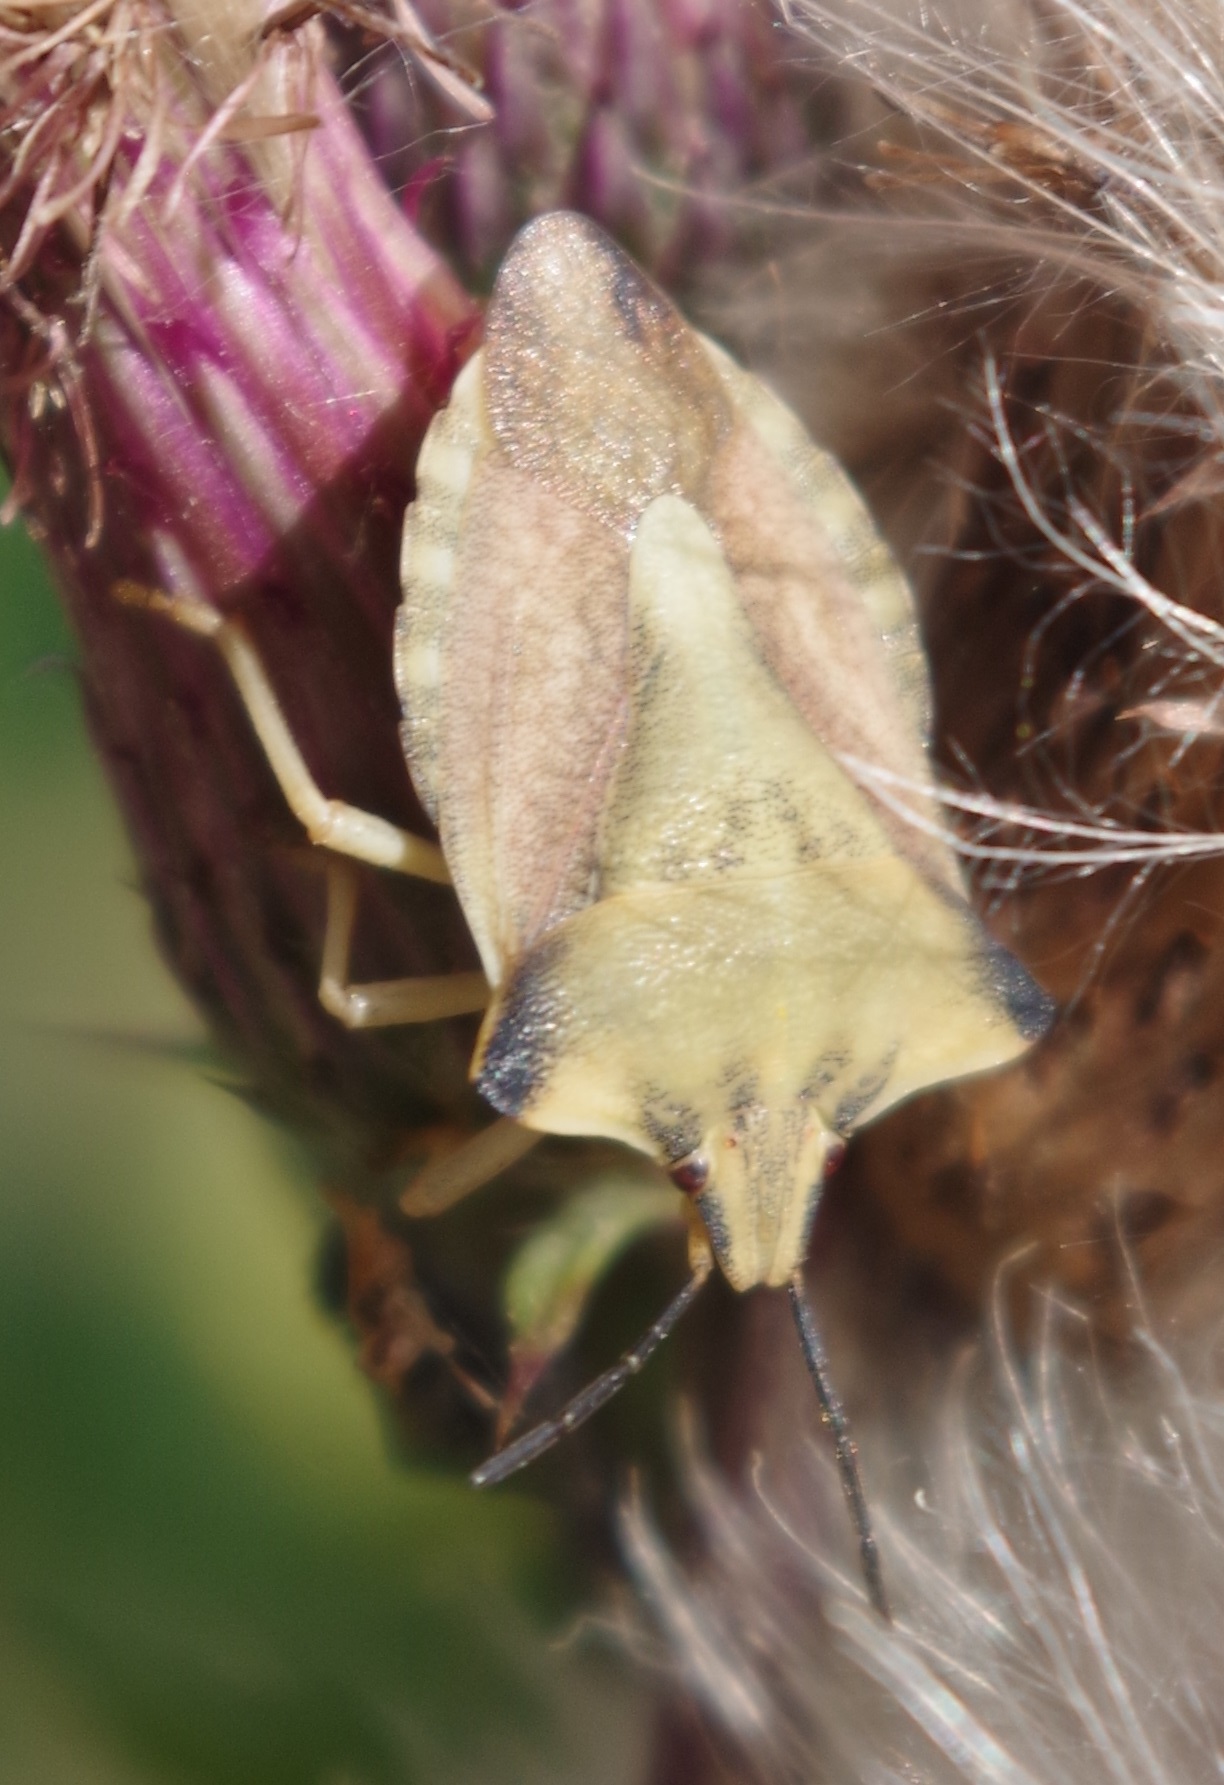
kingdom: Animalia
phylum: Arthropoda
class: Insecta
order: Hemiptera
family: Pentatomidae
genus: Carpocoris
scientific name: Carpocoris fuscispinus
